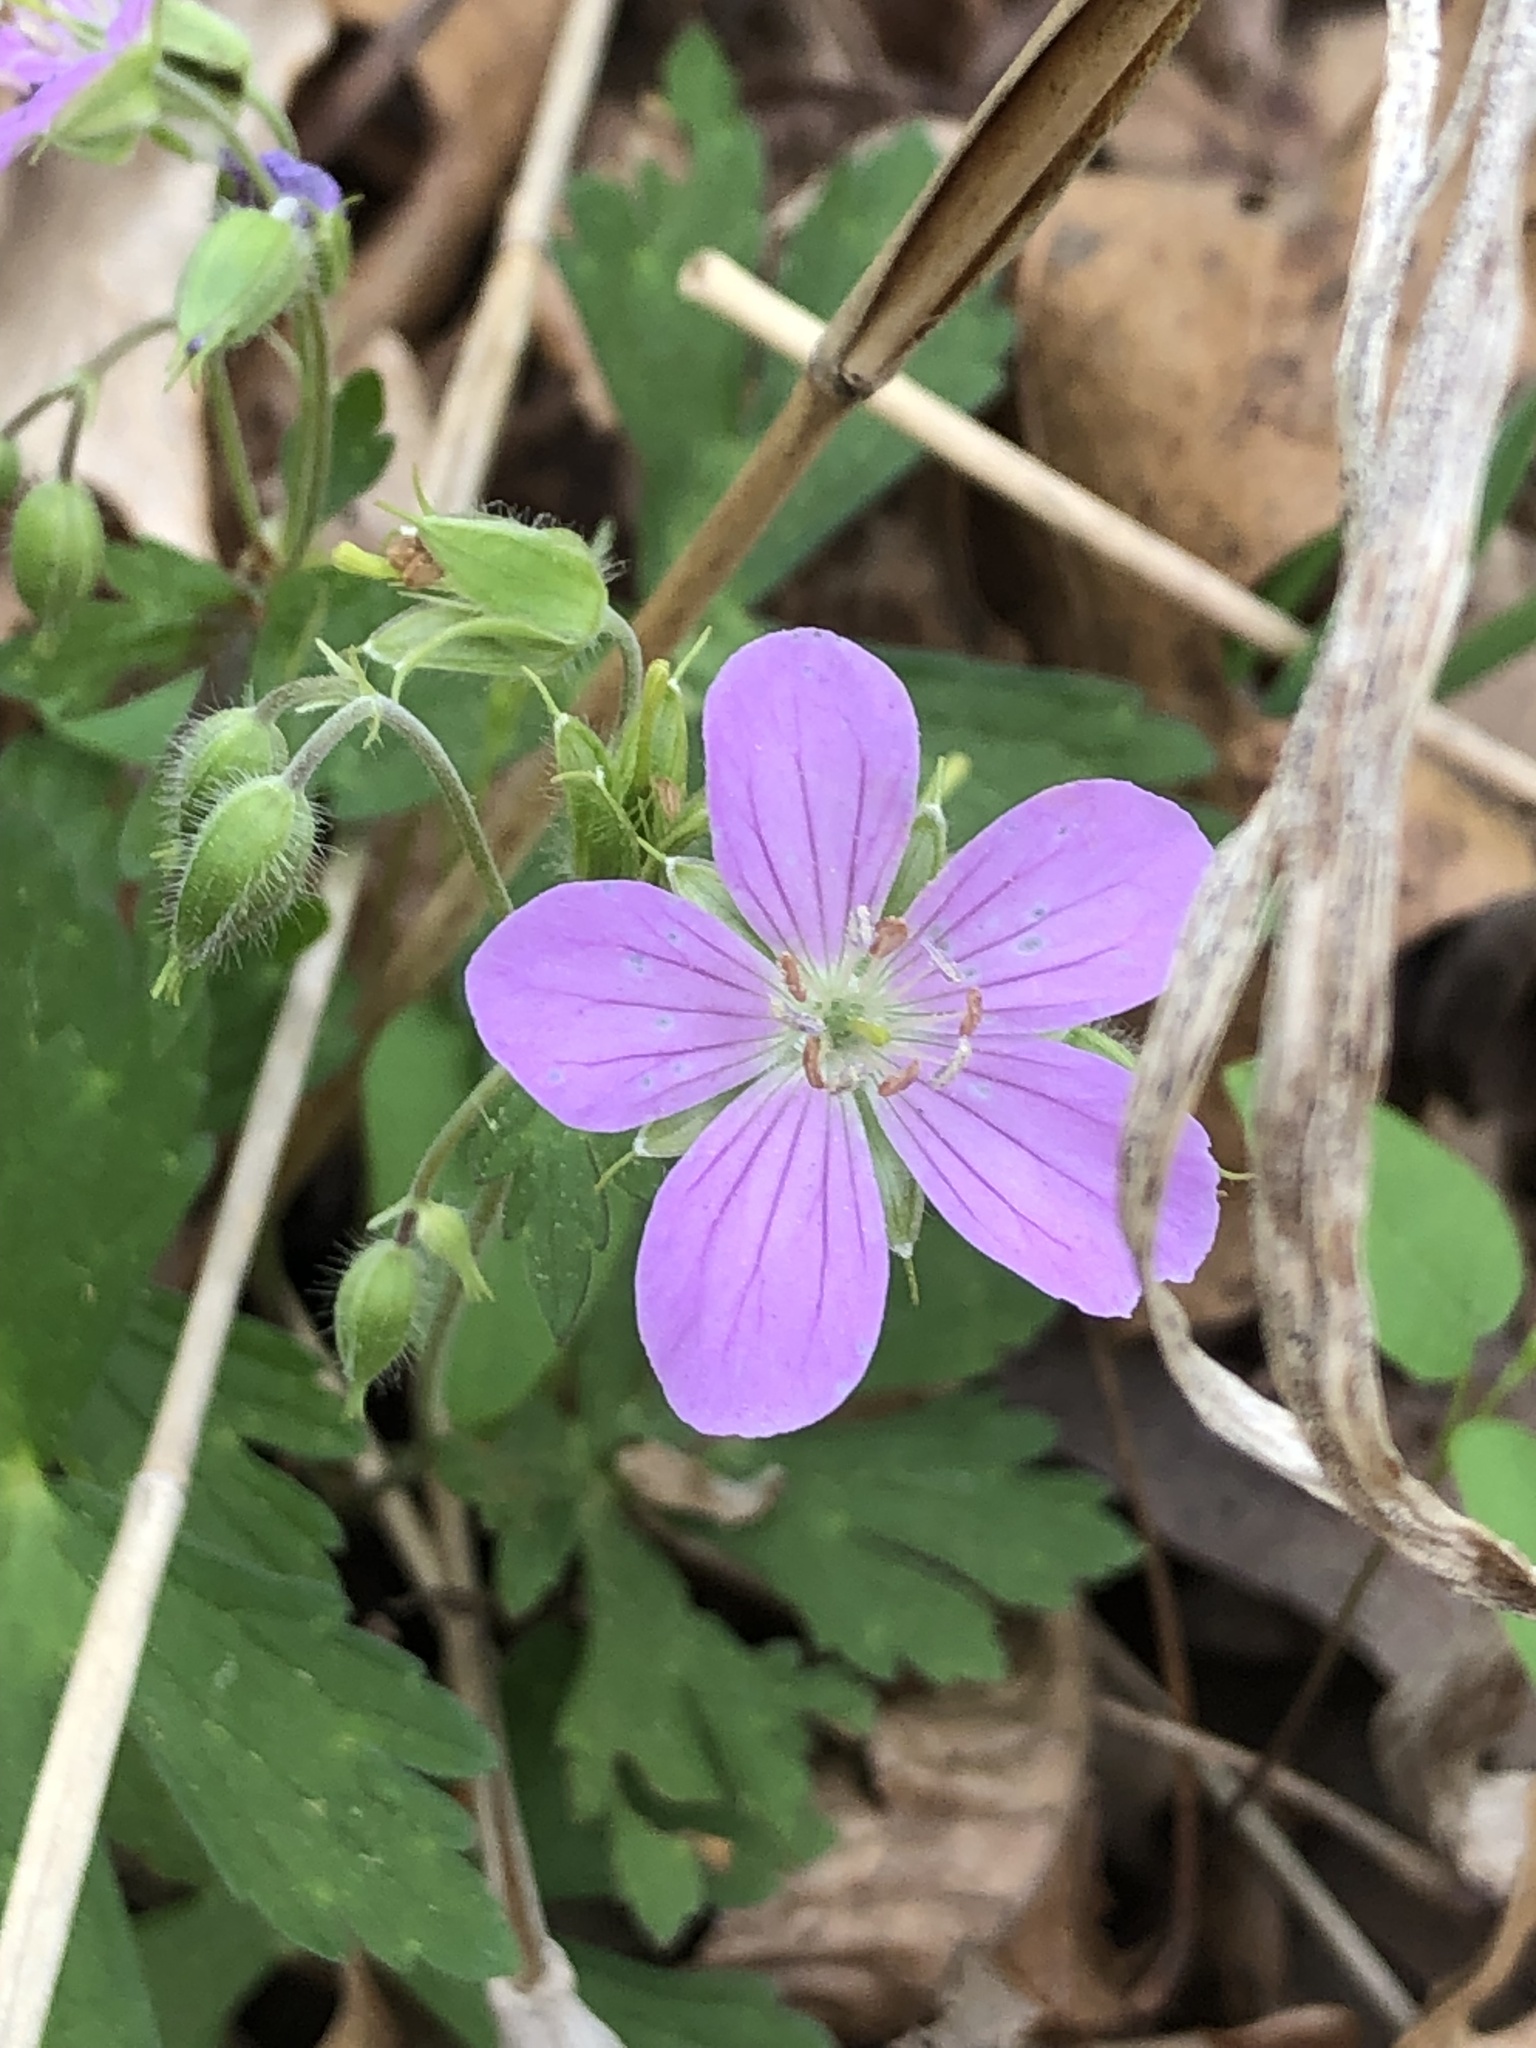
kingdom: Plantae
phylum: Tracheophyta
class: Magnoliopsida
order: Geraniales
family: Geraniaceae
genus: Geranium
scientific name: Geranium maculatum
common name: Spotted geranium
